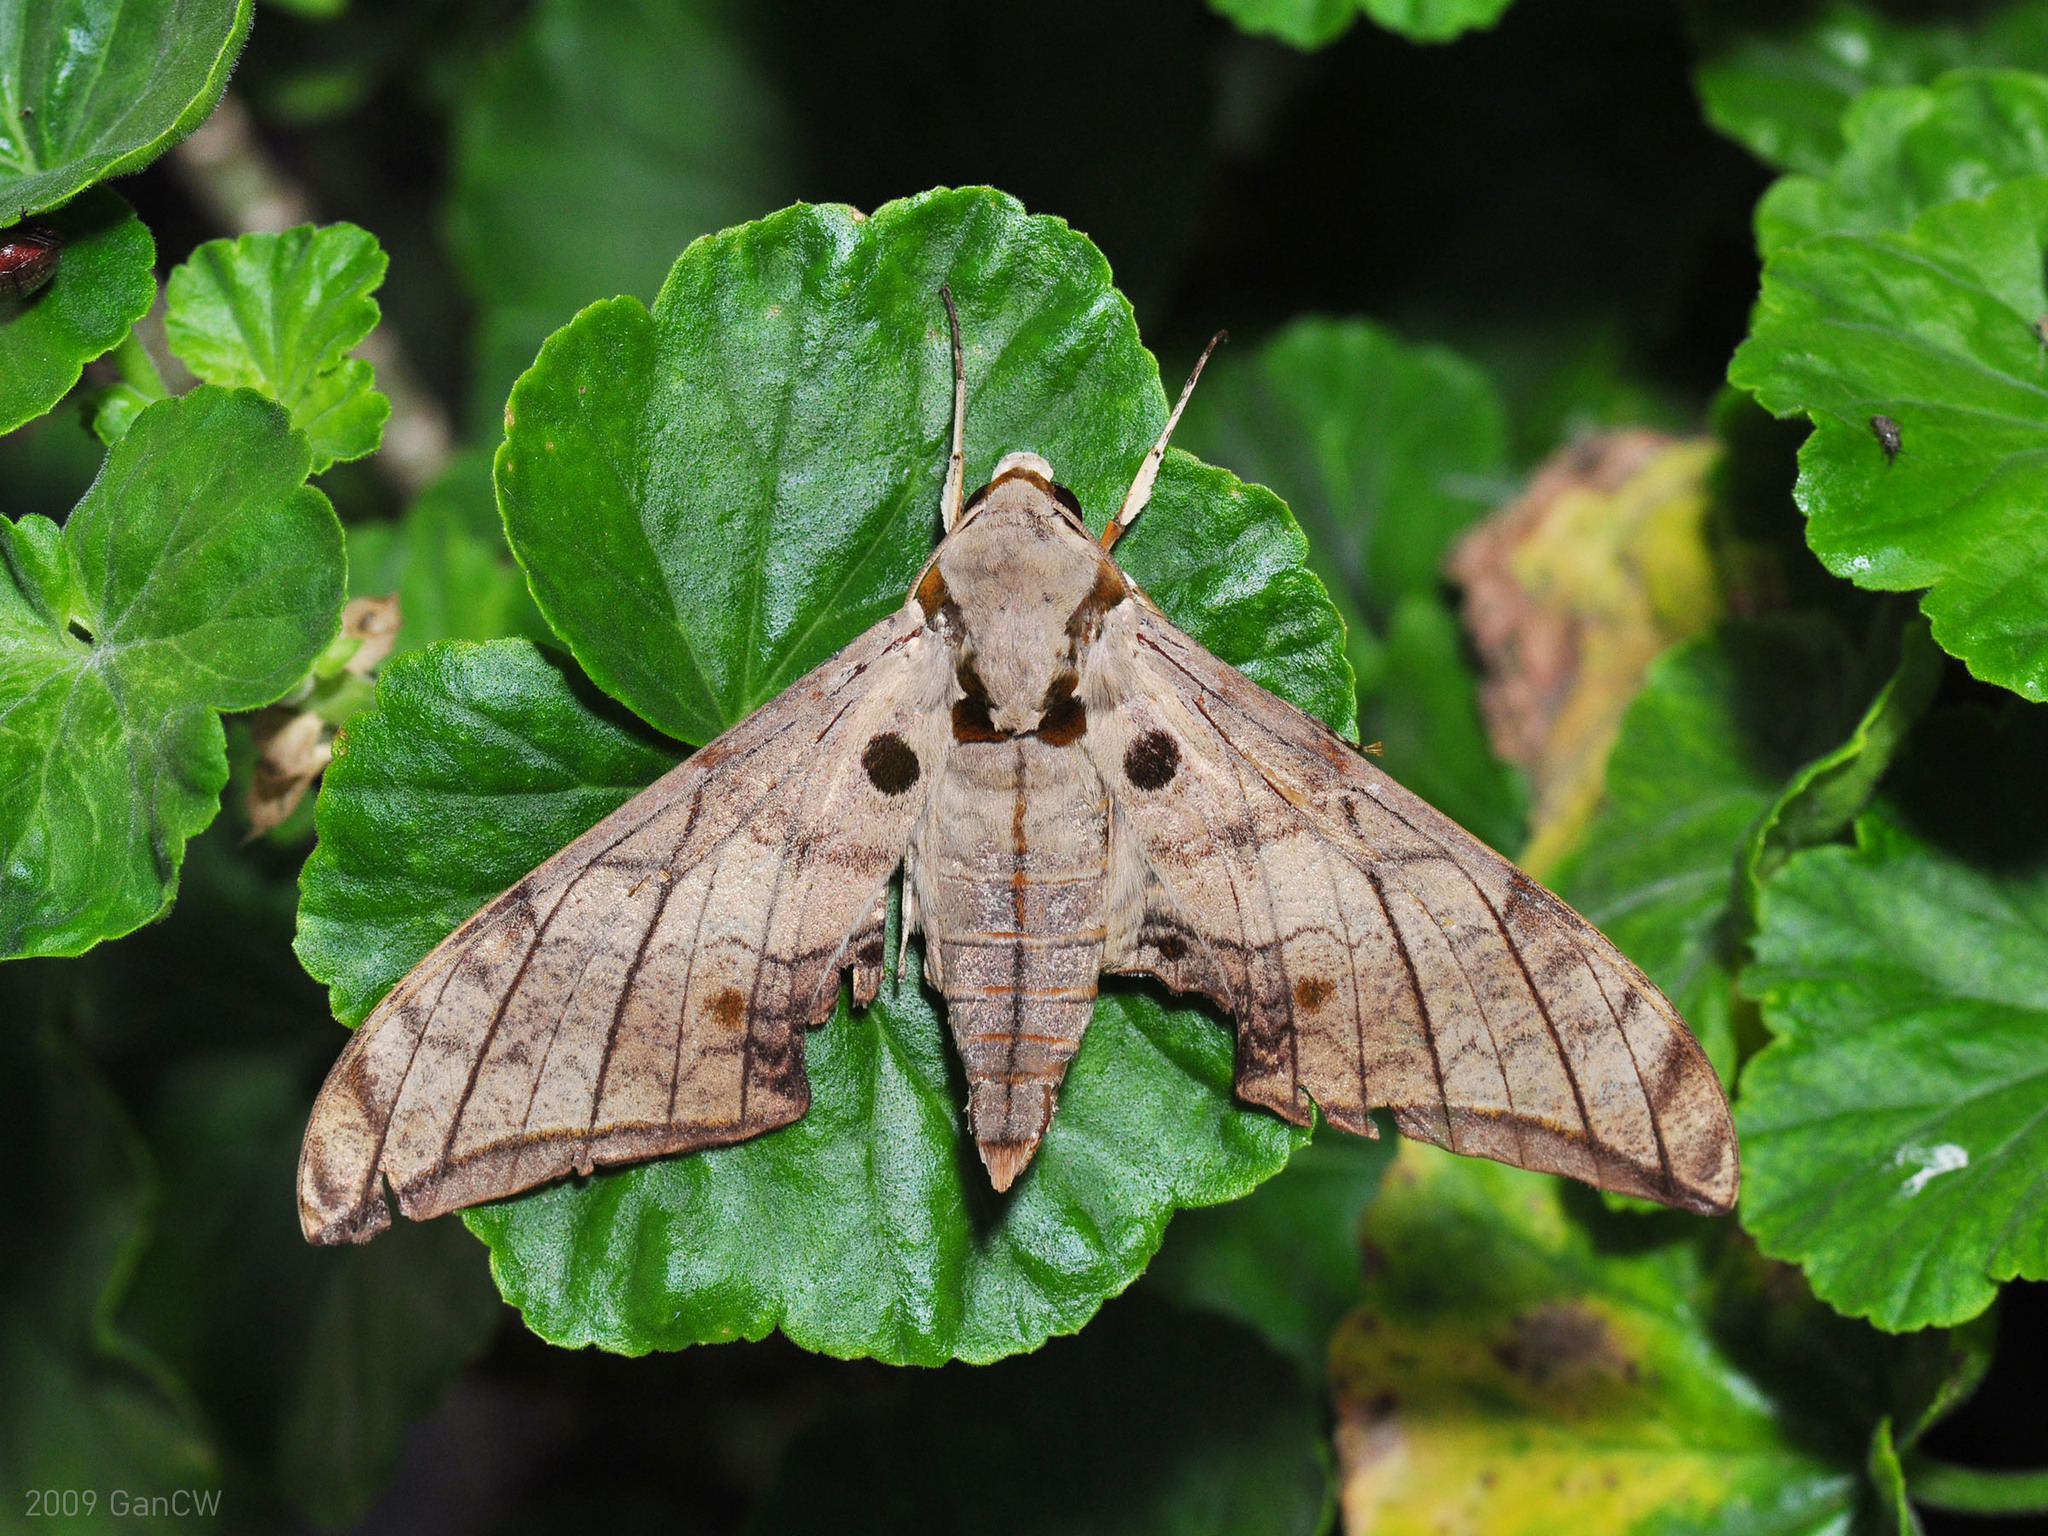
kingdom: Animalia
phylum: Arthropoda
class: Insecta
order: Lepidoptera
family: Sphingidae
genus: Ambulyx
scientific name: Ambulyx substrigilis
